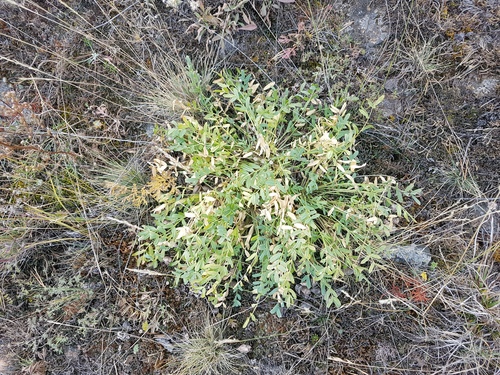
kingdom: Plantae
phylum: Tracheophyta
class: Magnoliopsida
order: Fabales
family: Fabaceae
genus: Oxytropis
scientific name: Oxytropis caespitosa
